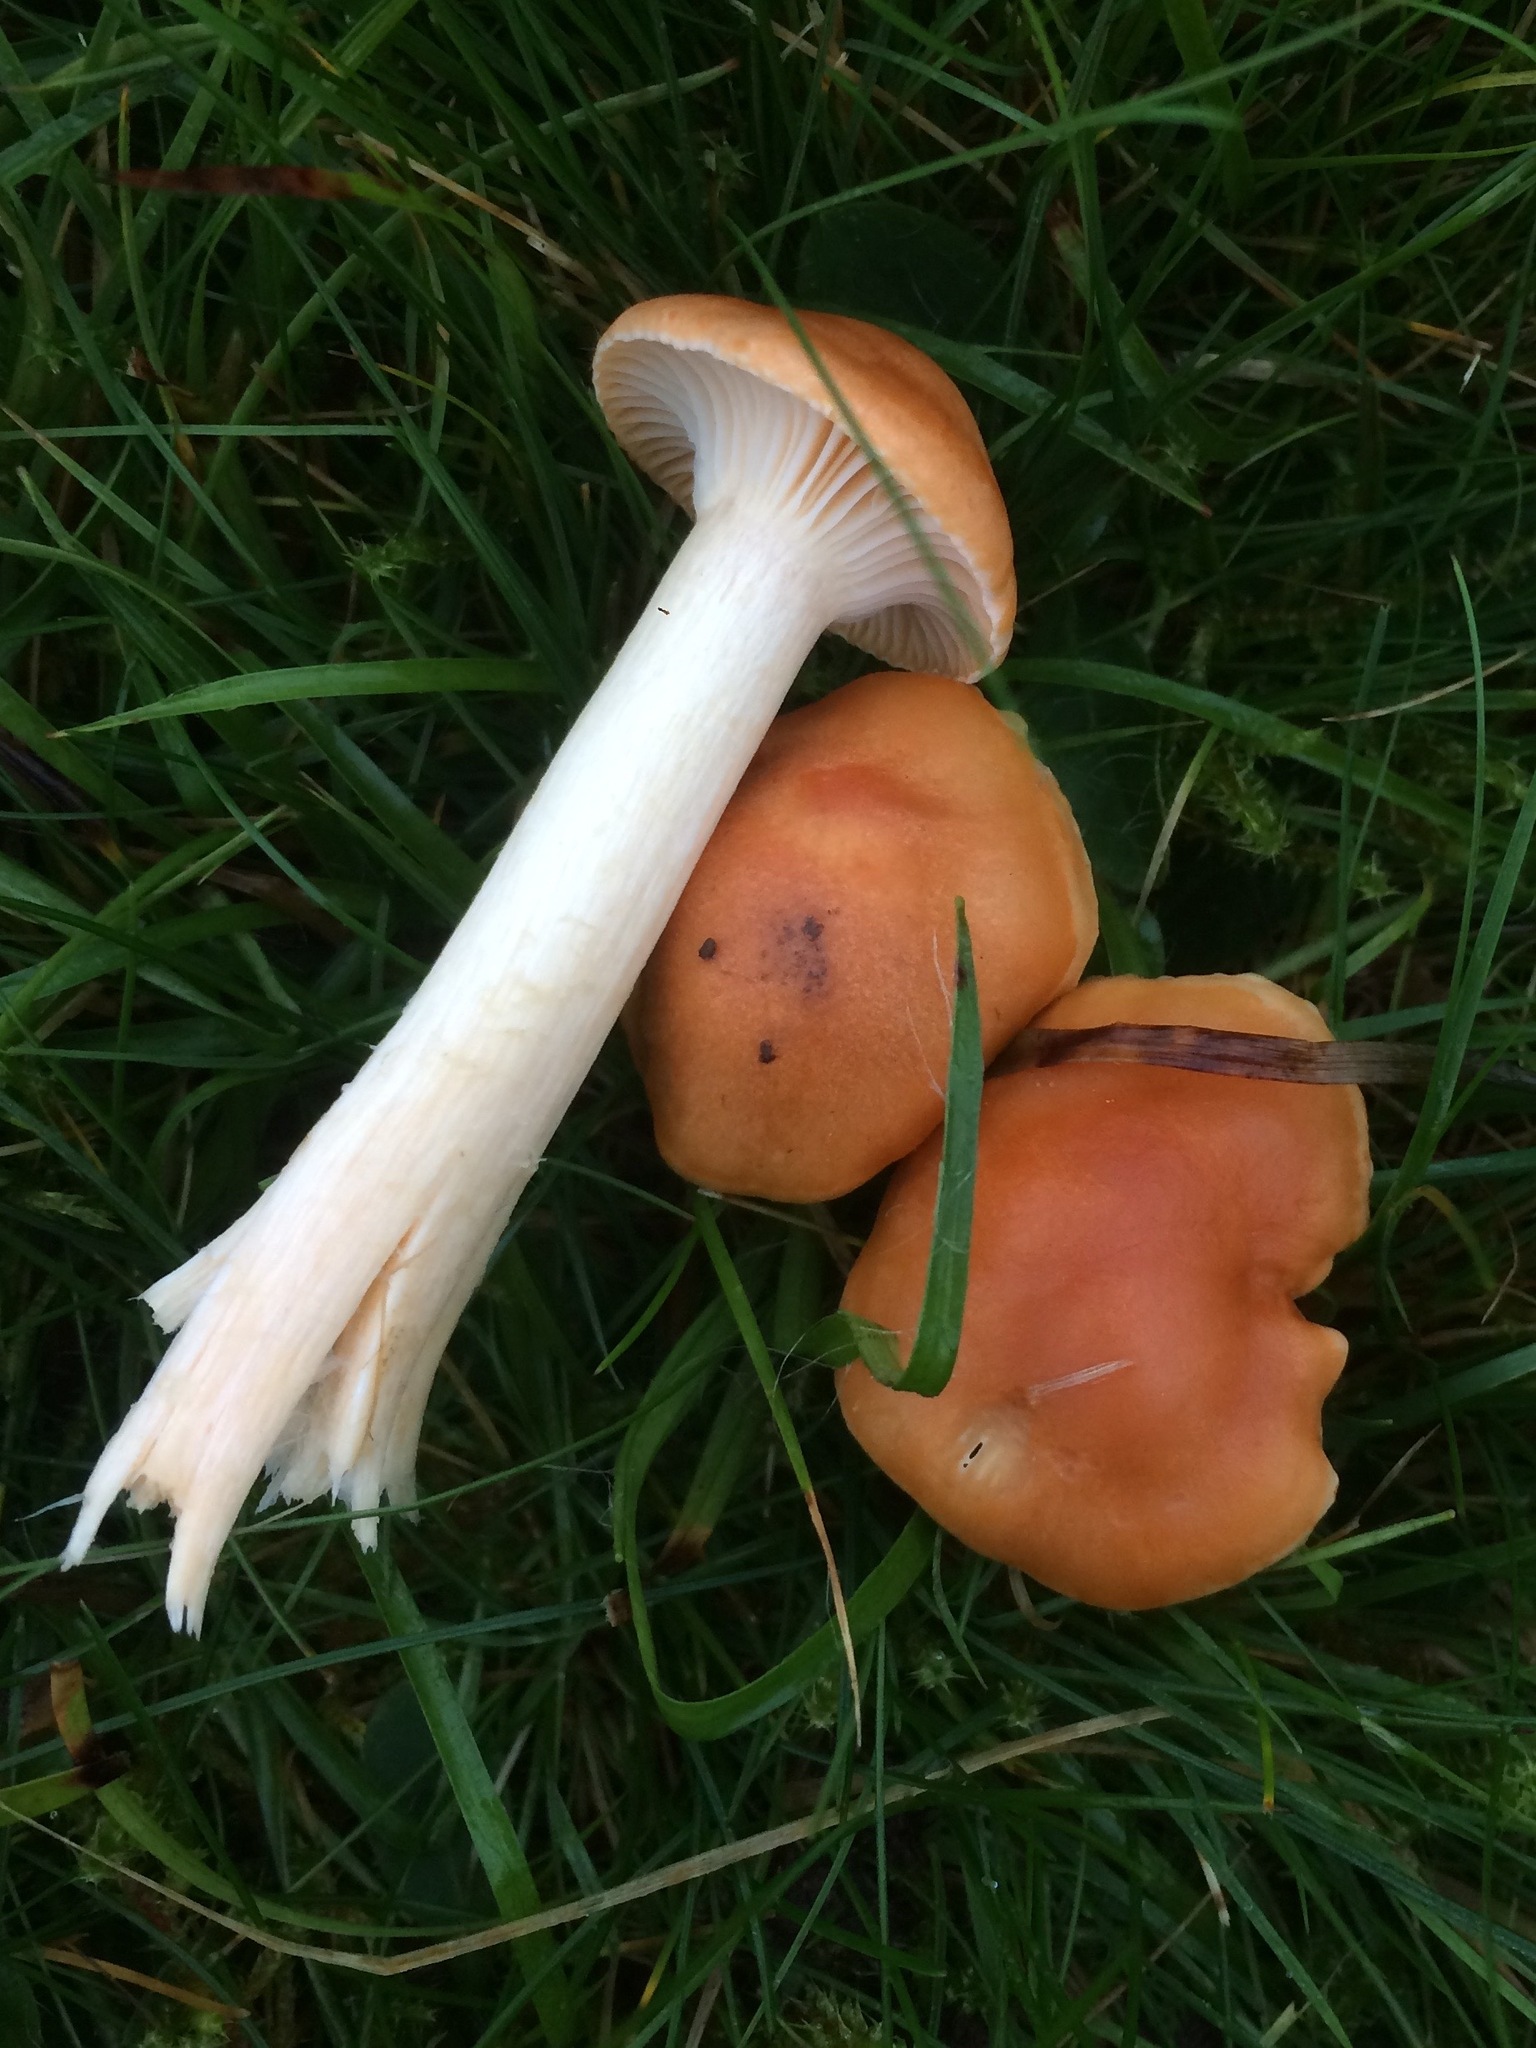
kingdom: Fungi
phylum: Basidiomycota
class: Agaricomycetes
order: Agaricales
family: Hygrophoraceae
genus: Cuphophyllus
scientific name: Cuphophyllus pratensis
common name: Meadow waxcap
